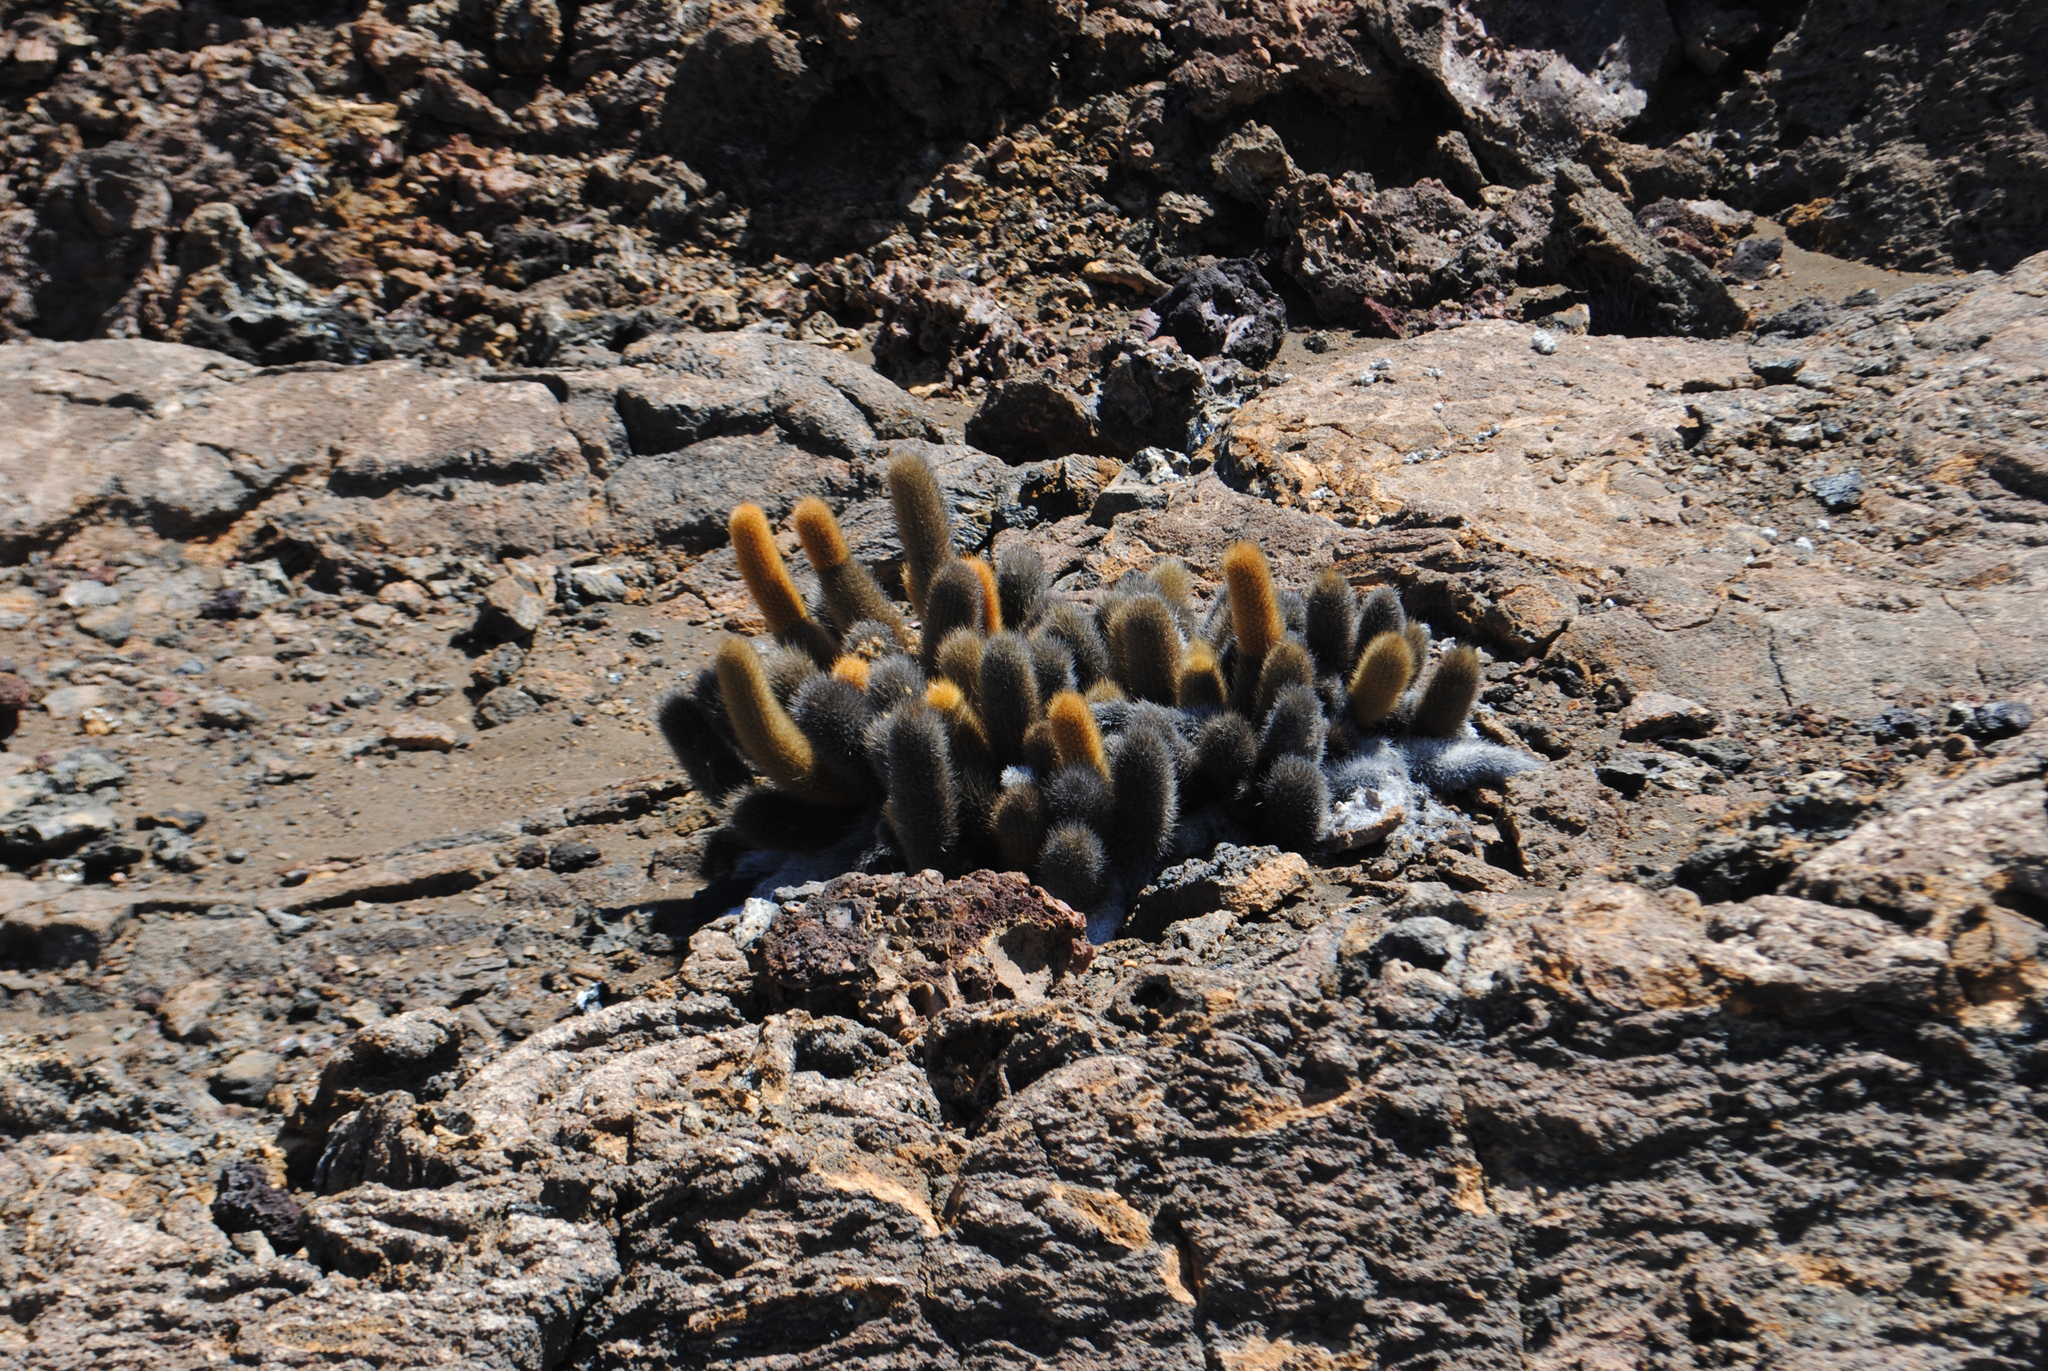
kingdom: Plantae
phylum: Tracheophyta
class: Magnoliopsida
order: Caryophyllales
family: Cactaceae
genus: Brachycereus
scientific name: Brachycereus nesioticus
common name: Lava cactus
